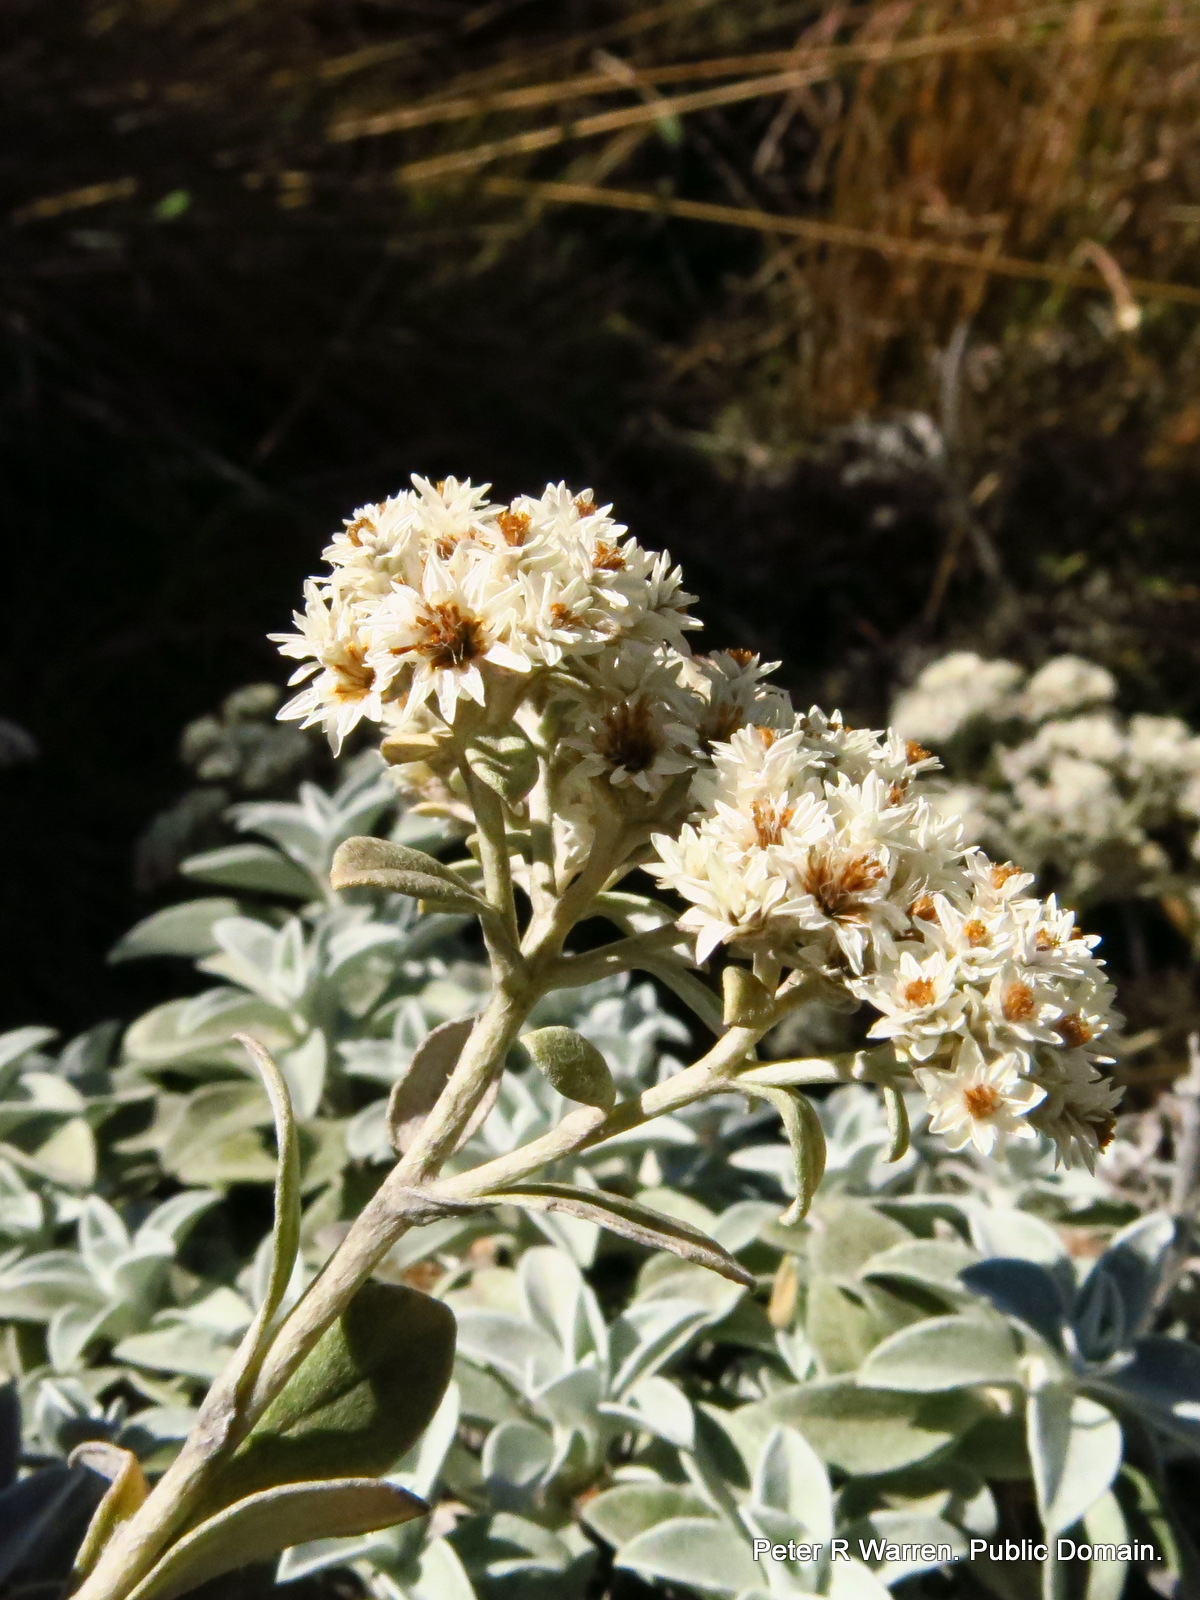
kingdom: Plantae
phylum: Tracheophyta
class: Magnoliopsida
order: Asterales
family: Asteraceae
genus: Helichrysum
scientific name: Helichrysum sutherlandii
